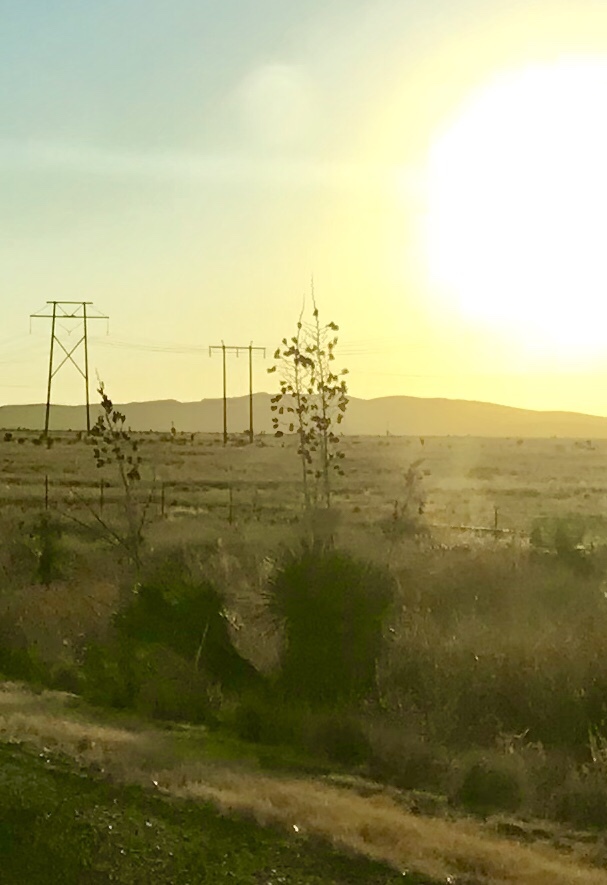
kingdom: Plantae
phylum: Tracheophyta
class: Liliopsida
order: Asparagales
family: Asparagaceae
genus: Yucca
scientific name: Yucca elata
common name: Palmella
